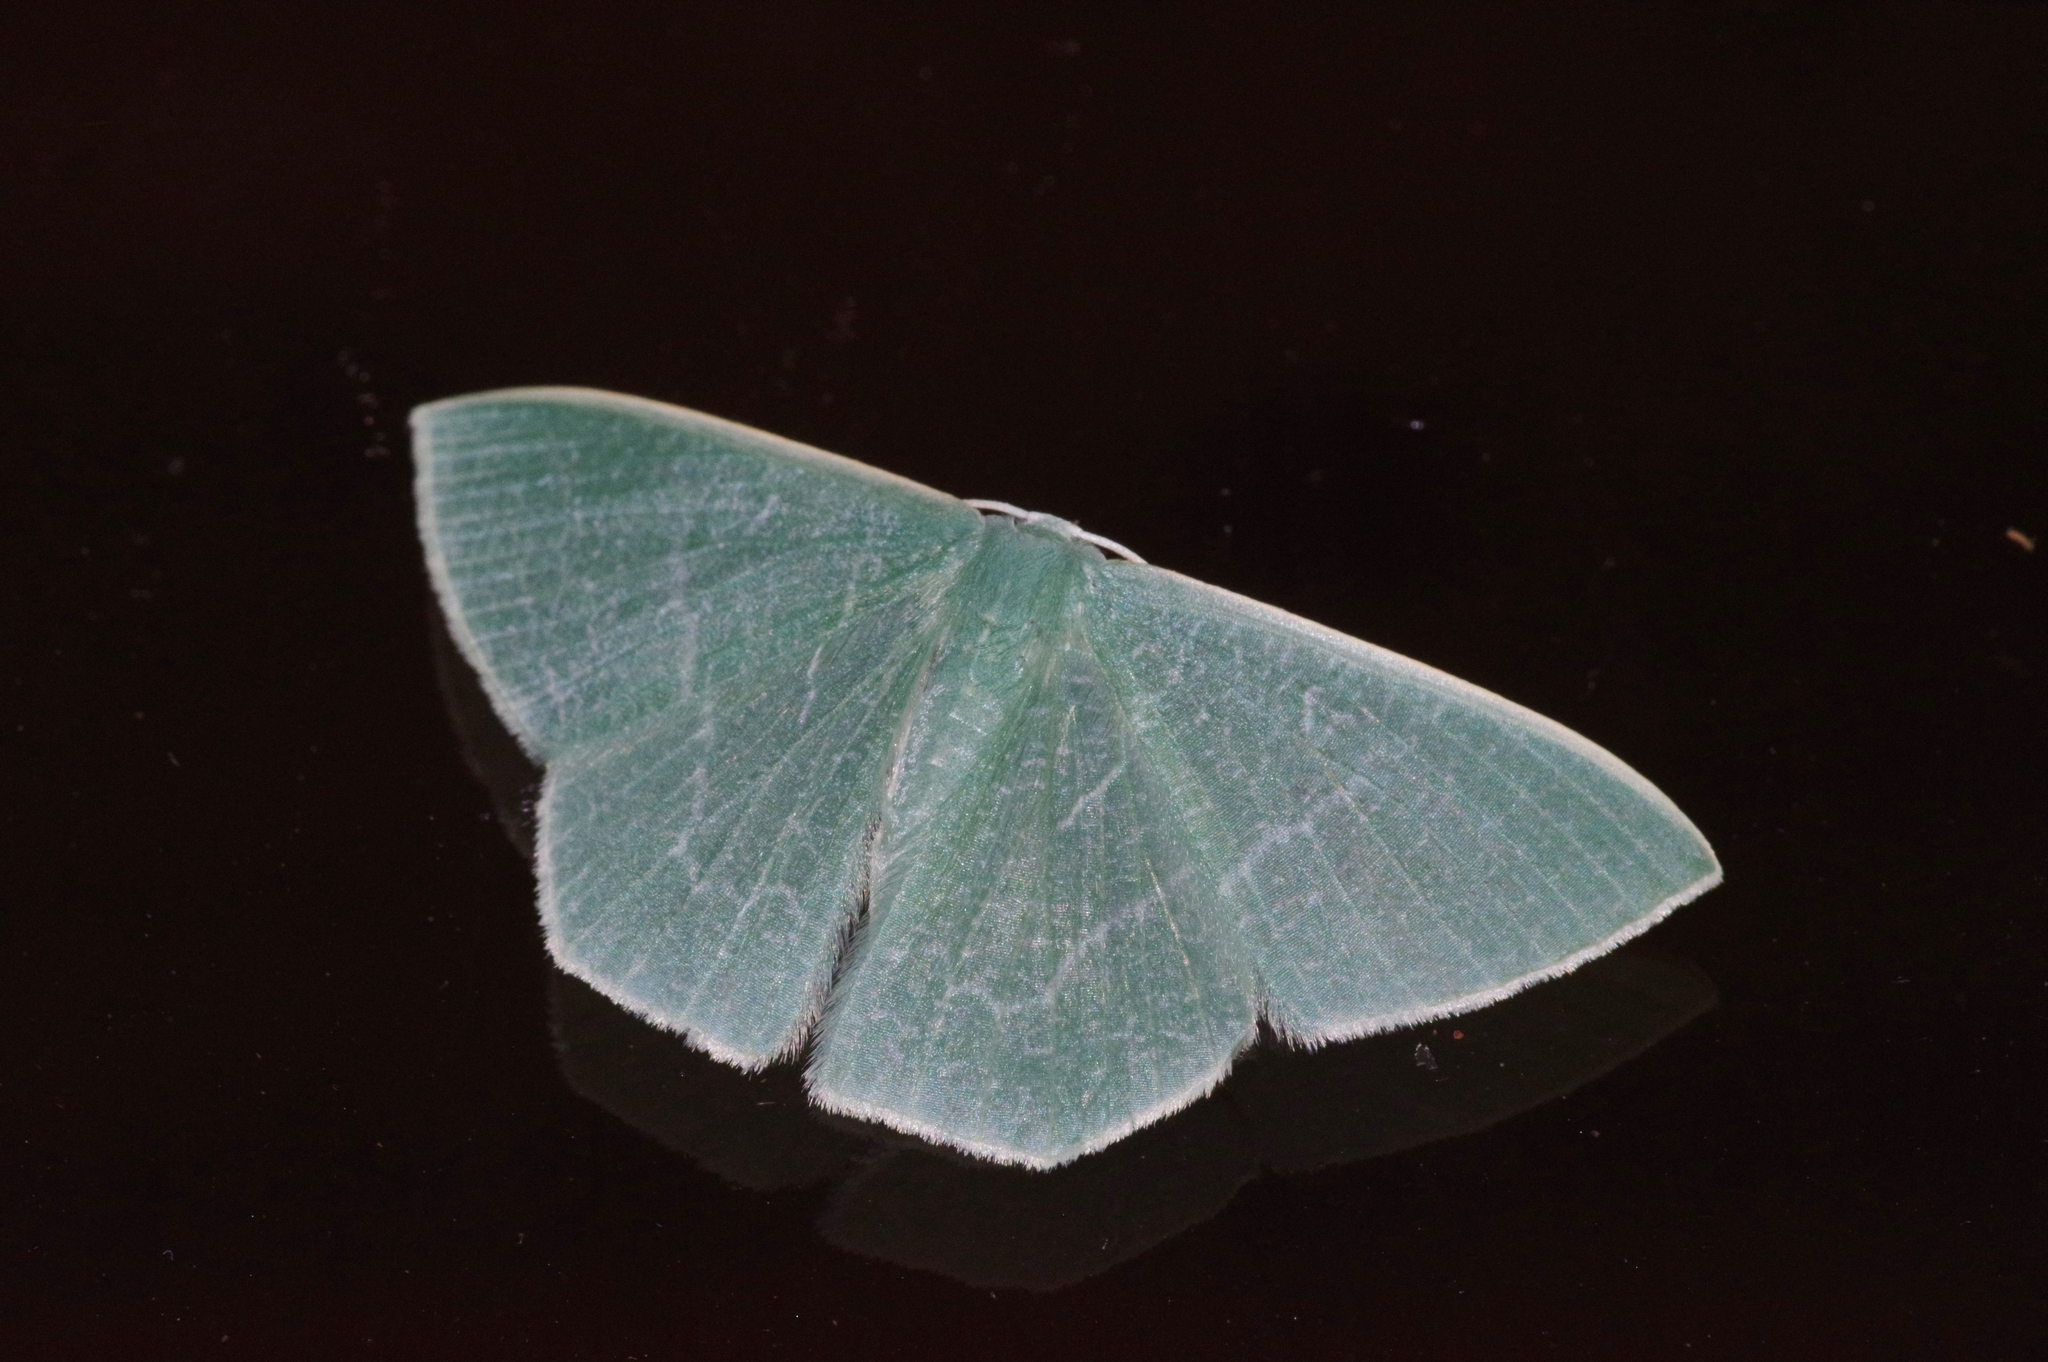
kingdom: Animalia
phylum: Arthropoda
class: Insecta
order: Lepidoptera
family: Geometridae
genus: Thalassodes
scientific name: Thalassodes immissaria
